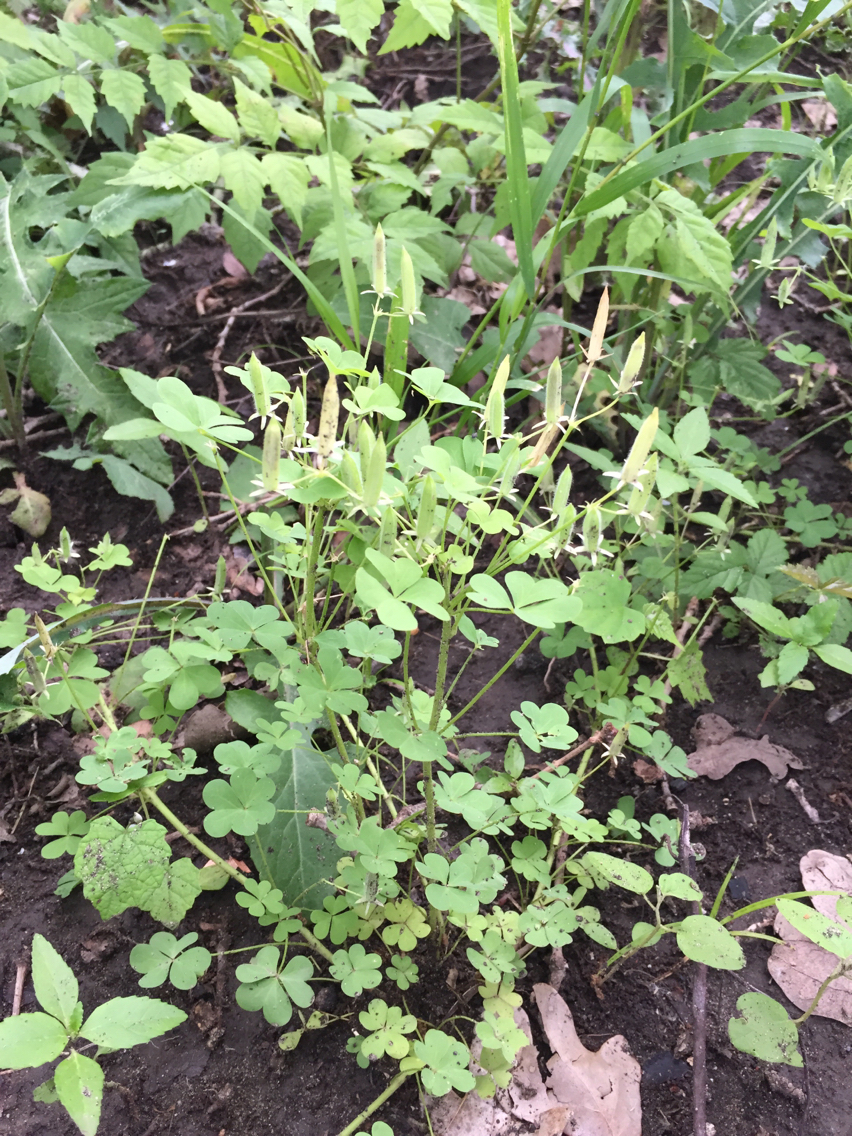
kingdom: Plantae
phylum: Tracheophyta
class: Magnoliopsida
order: Oxalidales
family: Oxalidaceae
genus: Oxalis
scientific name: Oxalis dillenii
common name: Sussex yellow-sorrel
